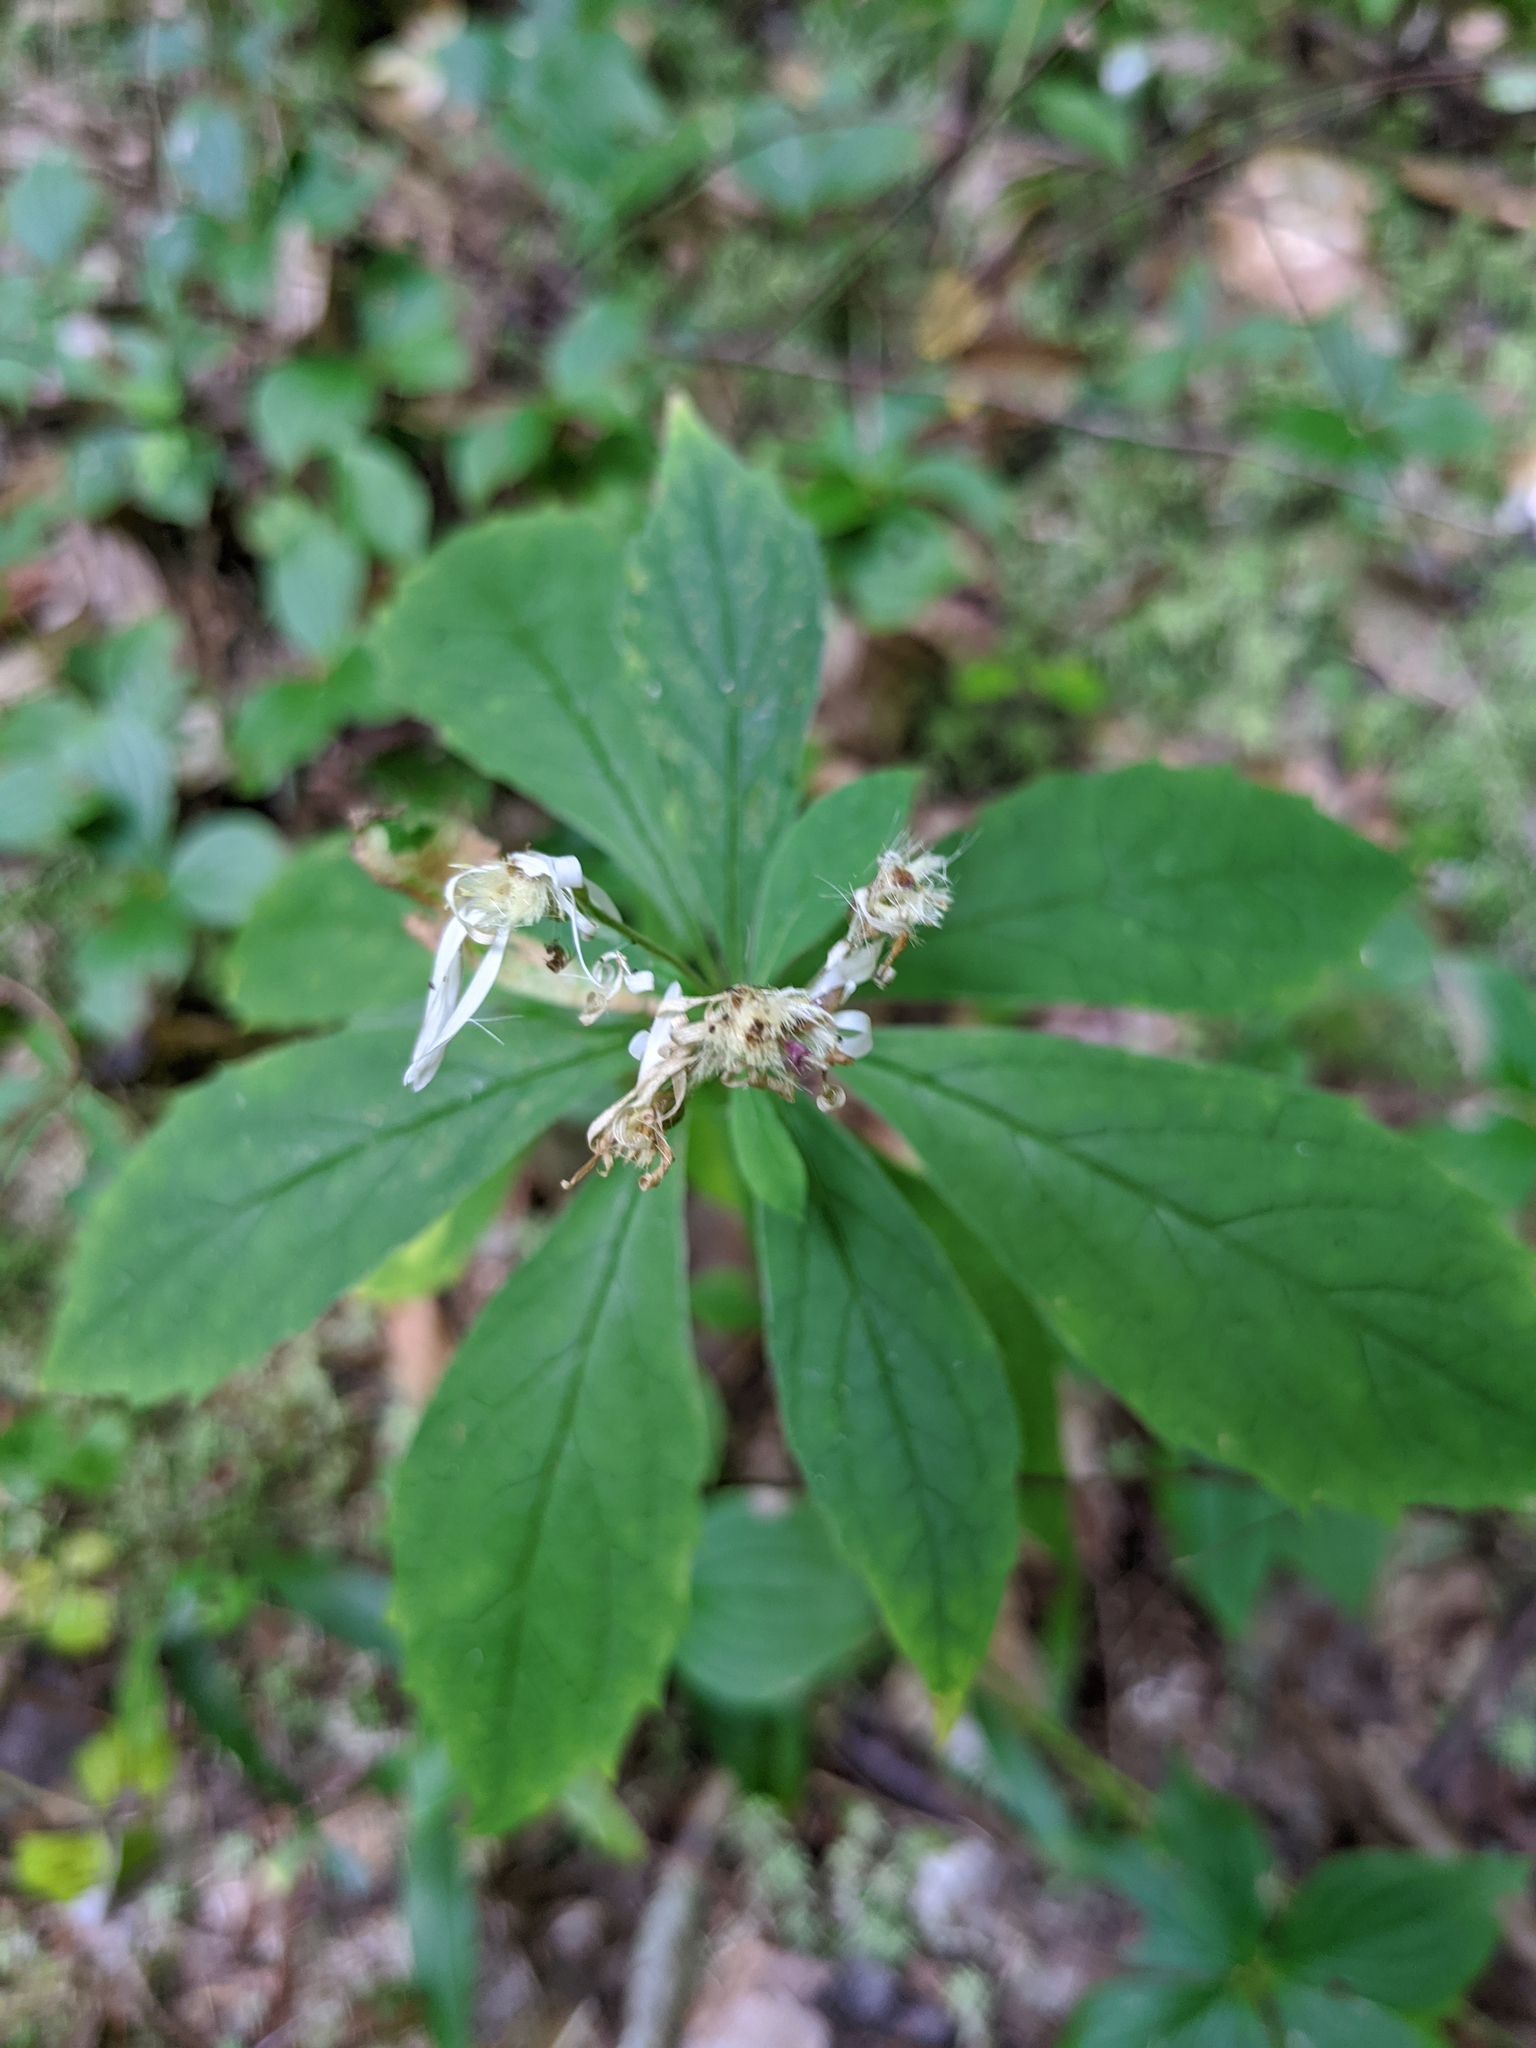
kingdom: Plantae
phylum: Tracheophyta
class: Magnoliopsida
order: Asterales
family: Asteraceae
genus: Oclemena
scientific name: Oclemena acuminata
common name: Mountain aster
